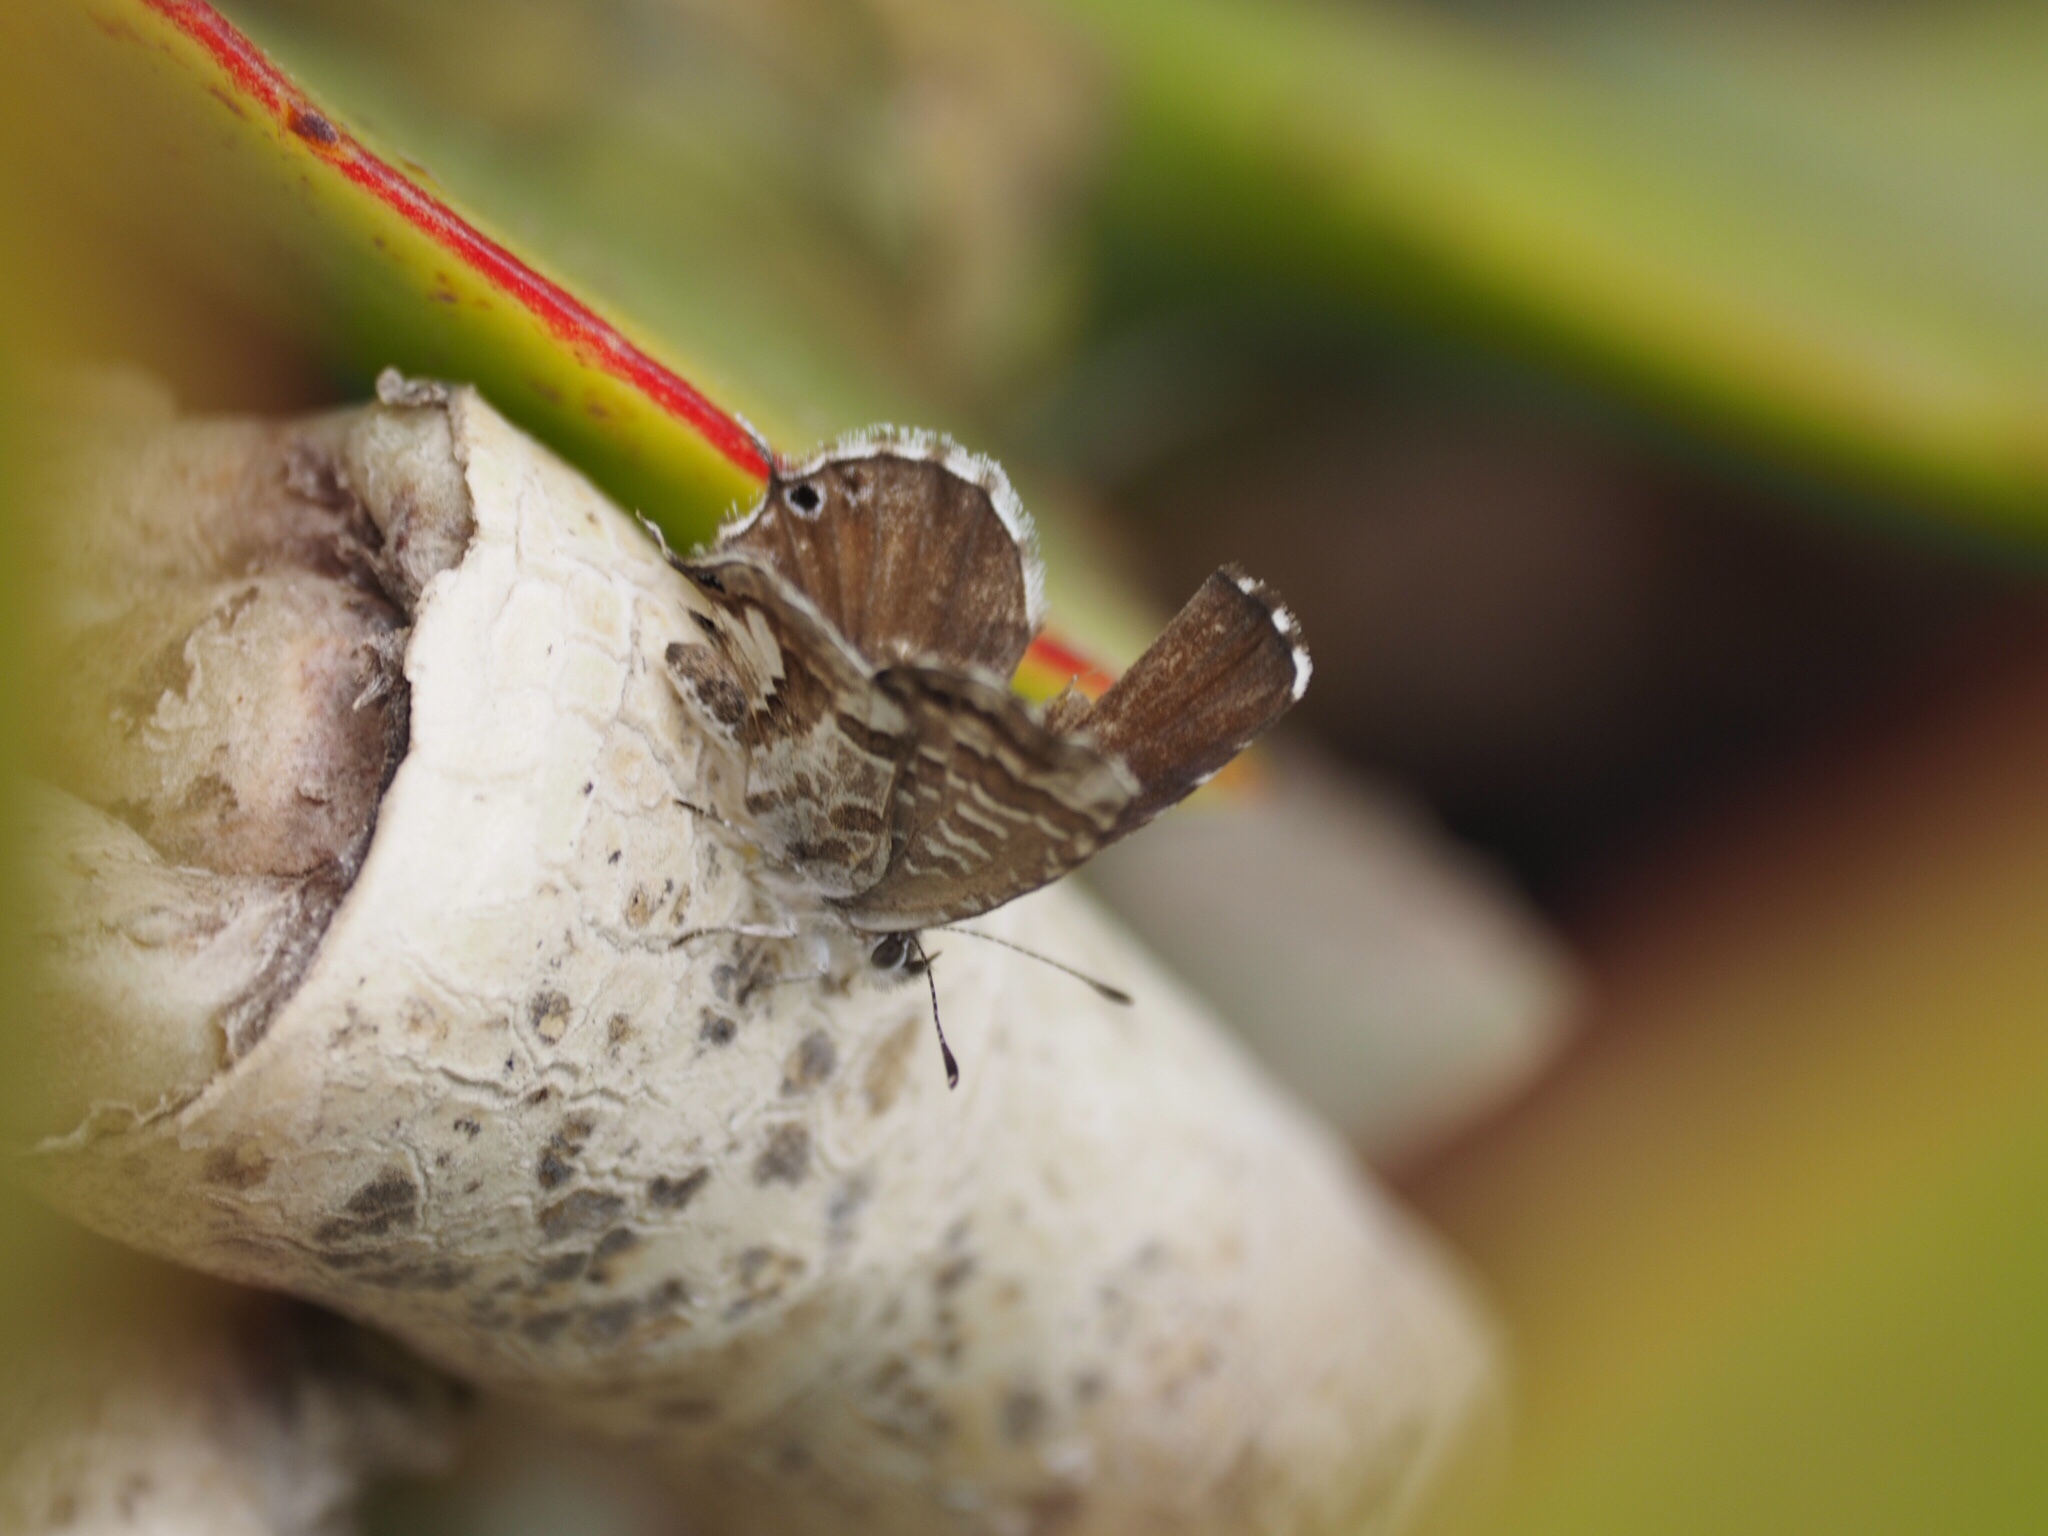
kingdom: Animalia
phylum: Arthropoda
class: Insecta
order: Lepidoptera
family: Lycaenidae
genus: Cacyreus
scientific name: Cacyreus marshalli
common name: Geranium bronze
